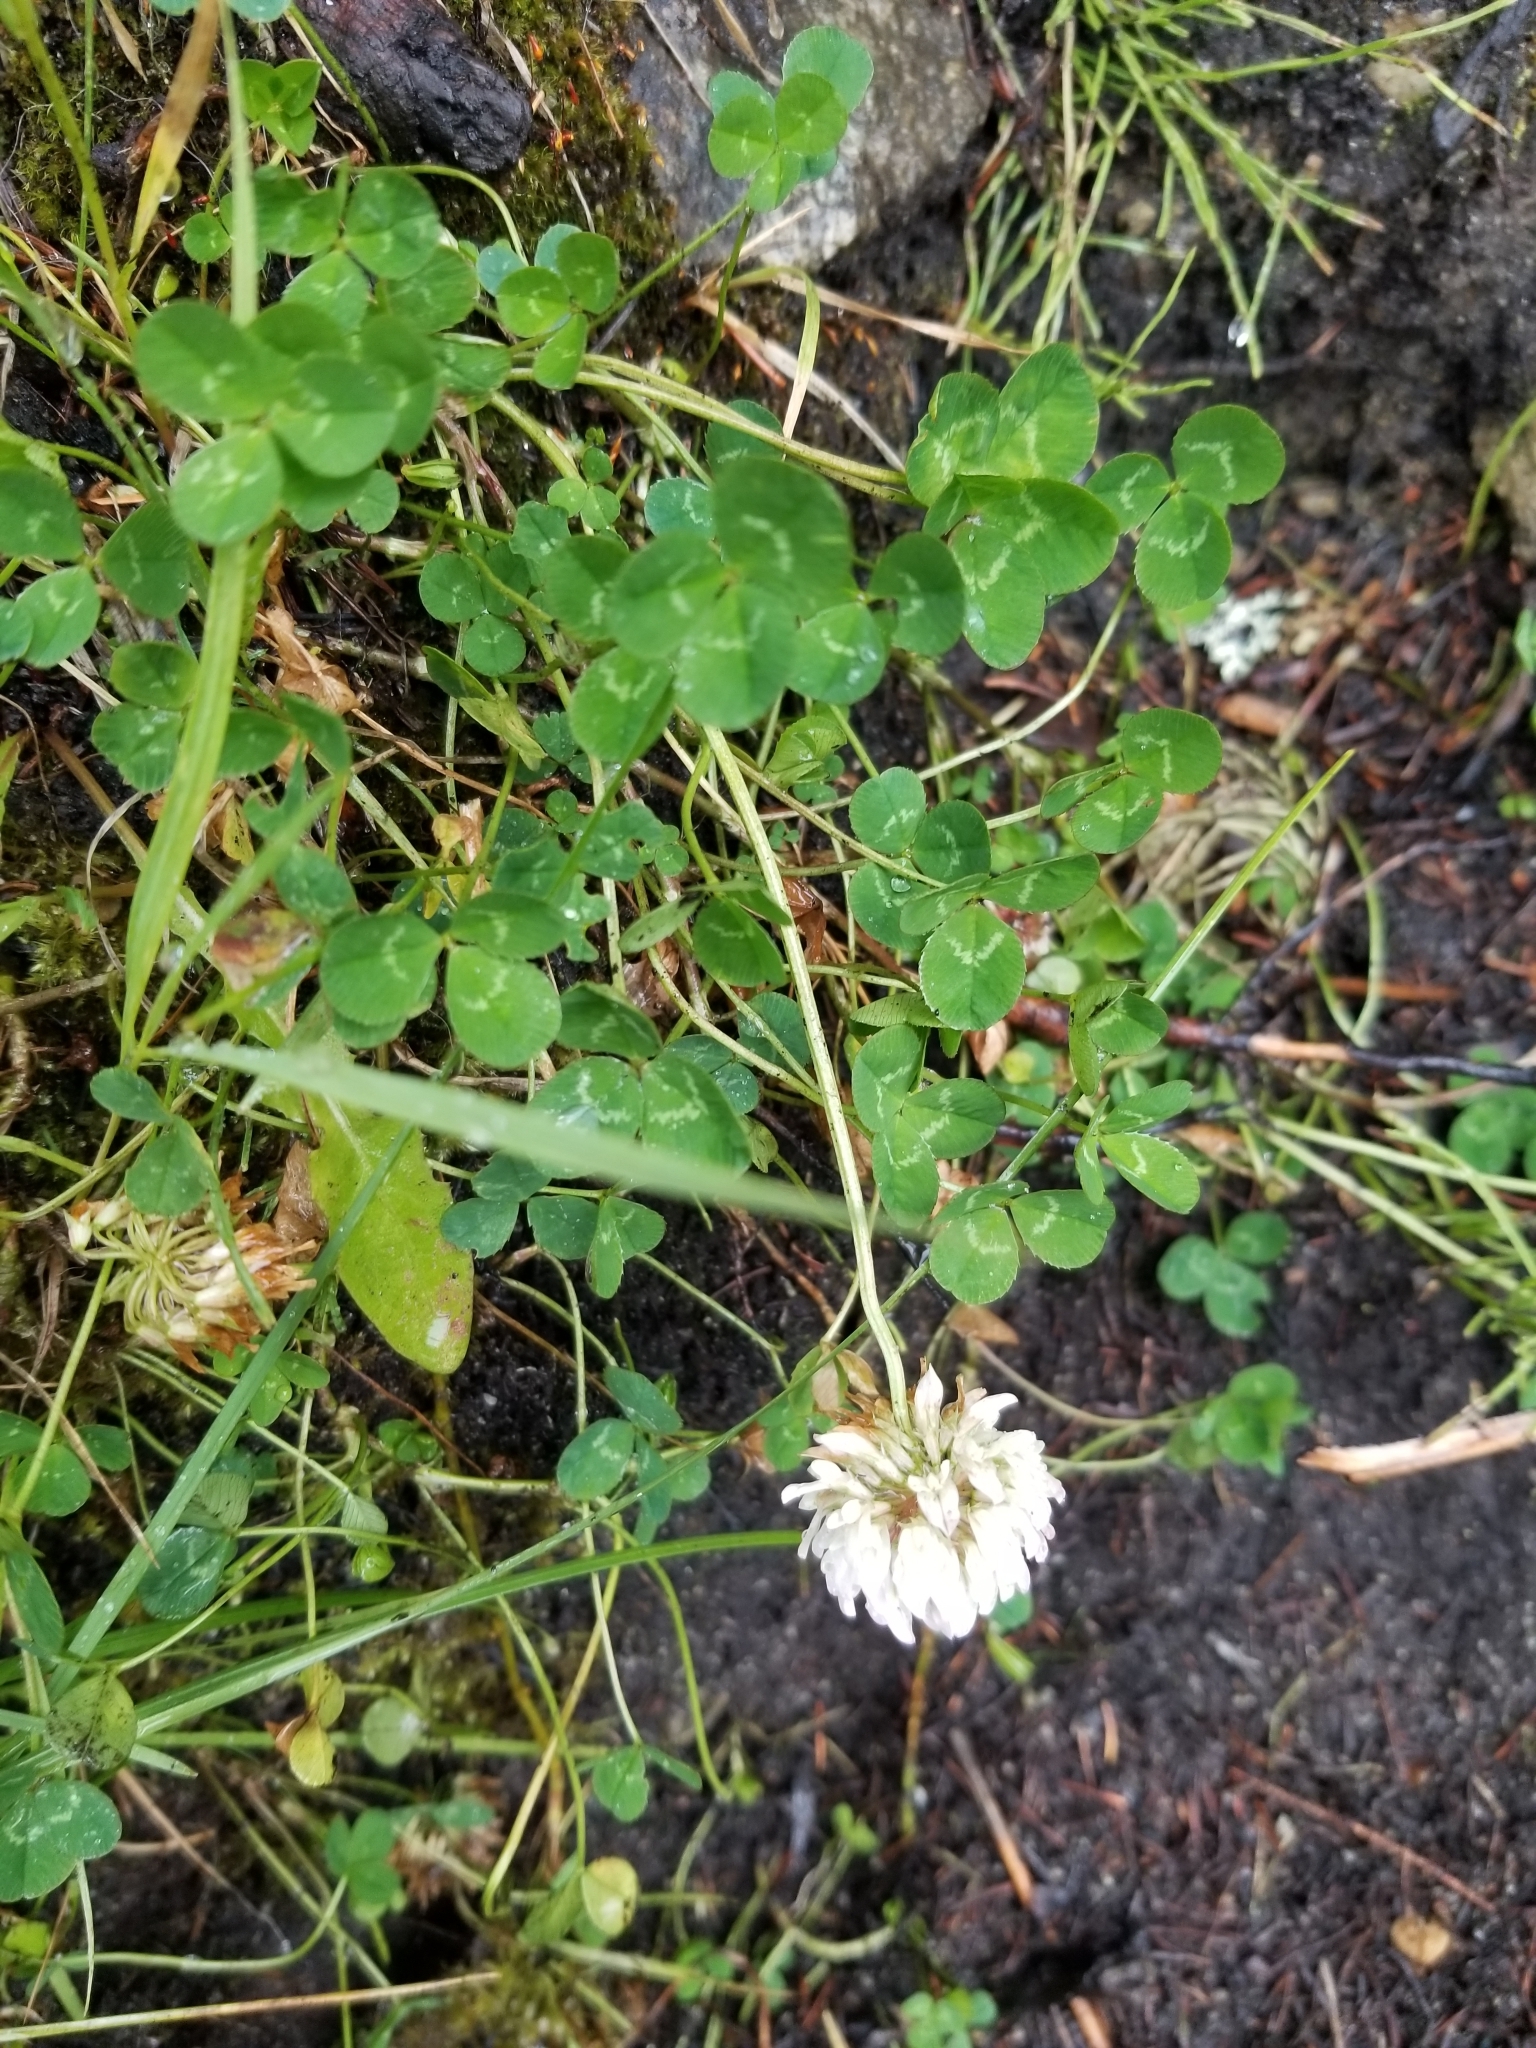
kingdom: Plantae
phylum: Tracheophyta
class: Magnoliopsida
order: Fabales
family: Fabaceae
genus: Trifolium
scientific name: Trifolium repens
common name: White clover
